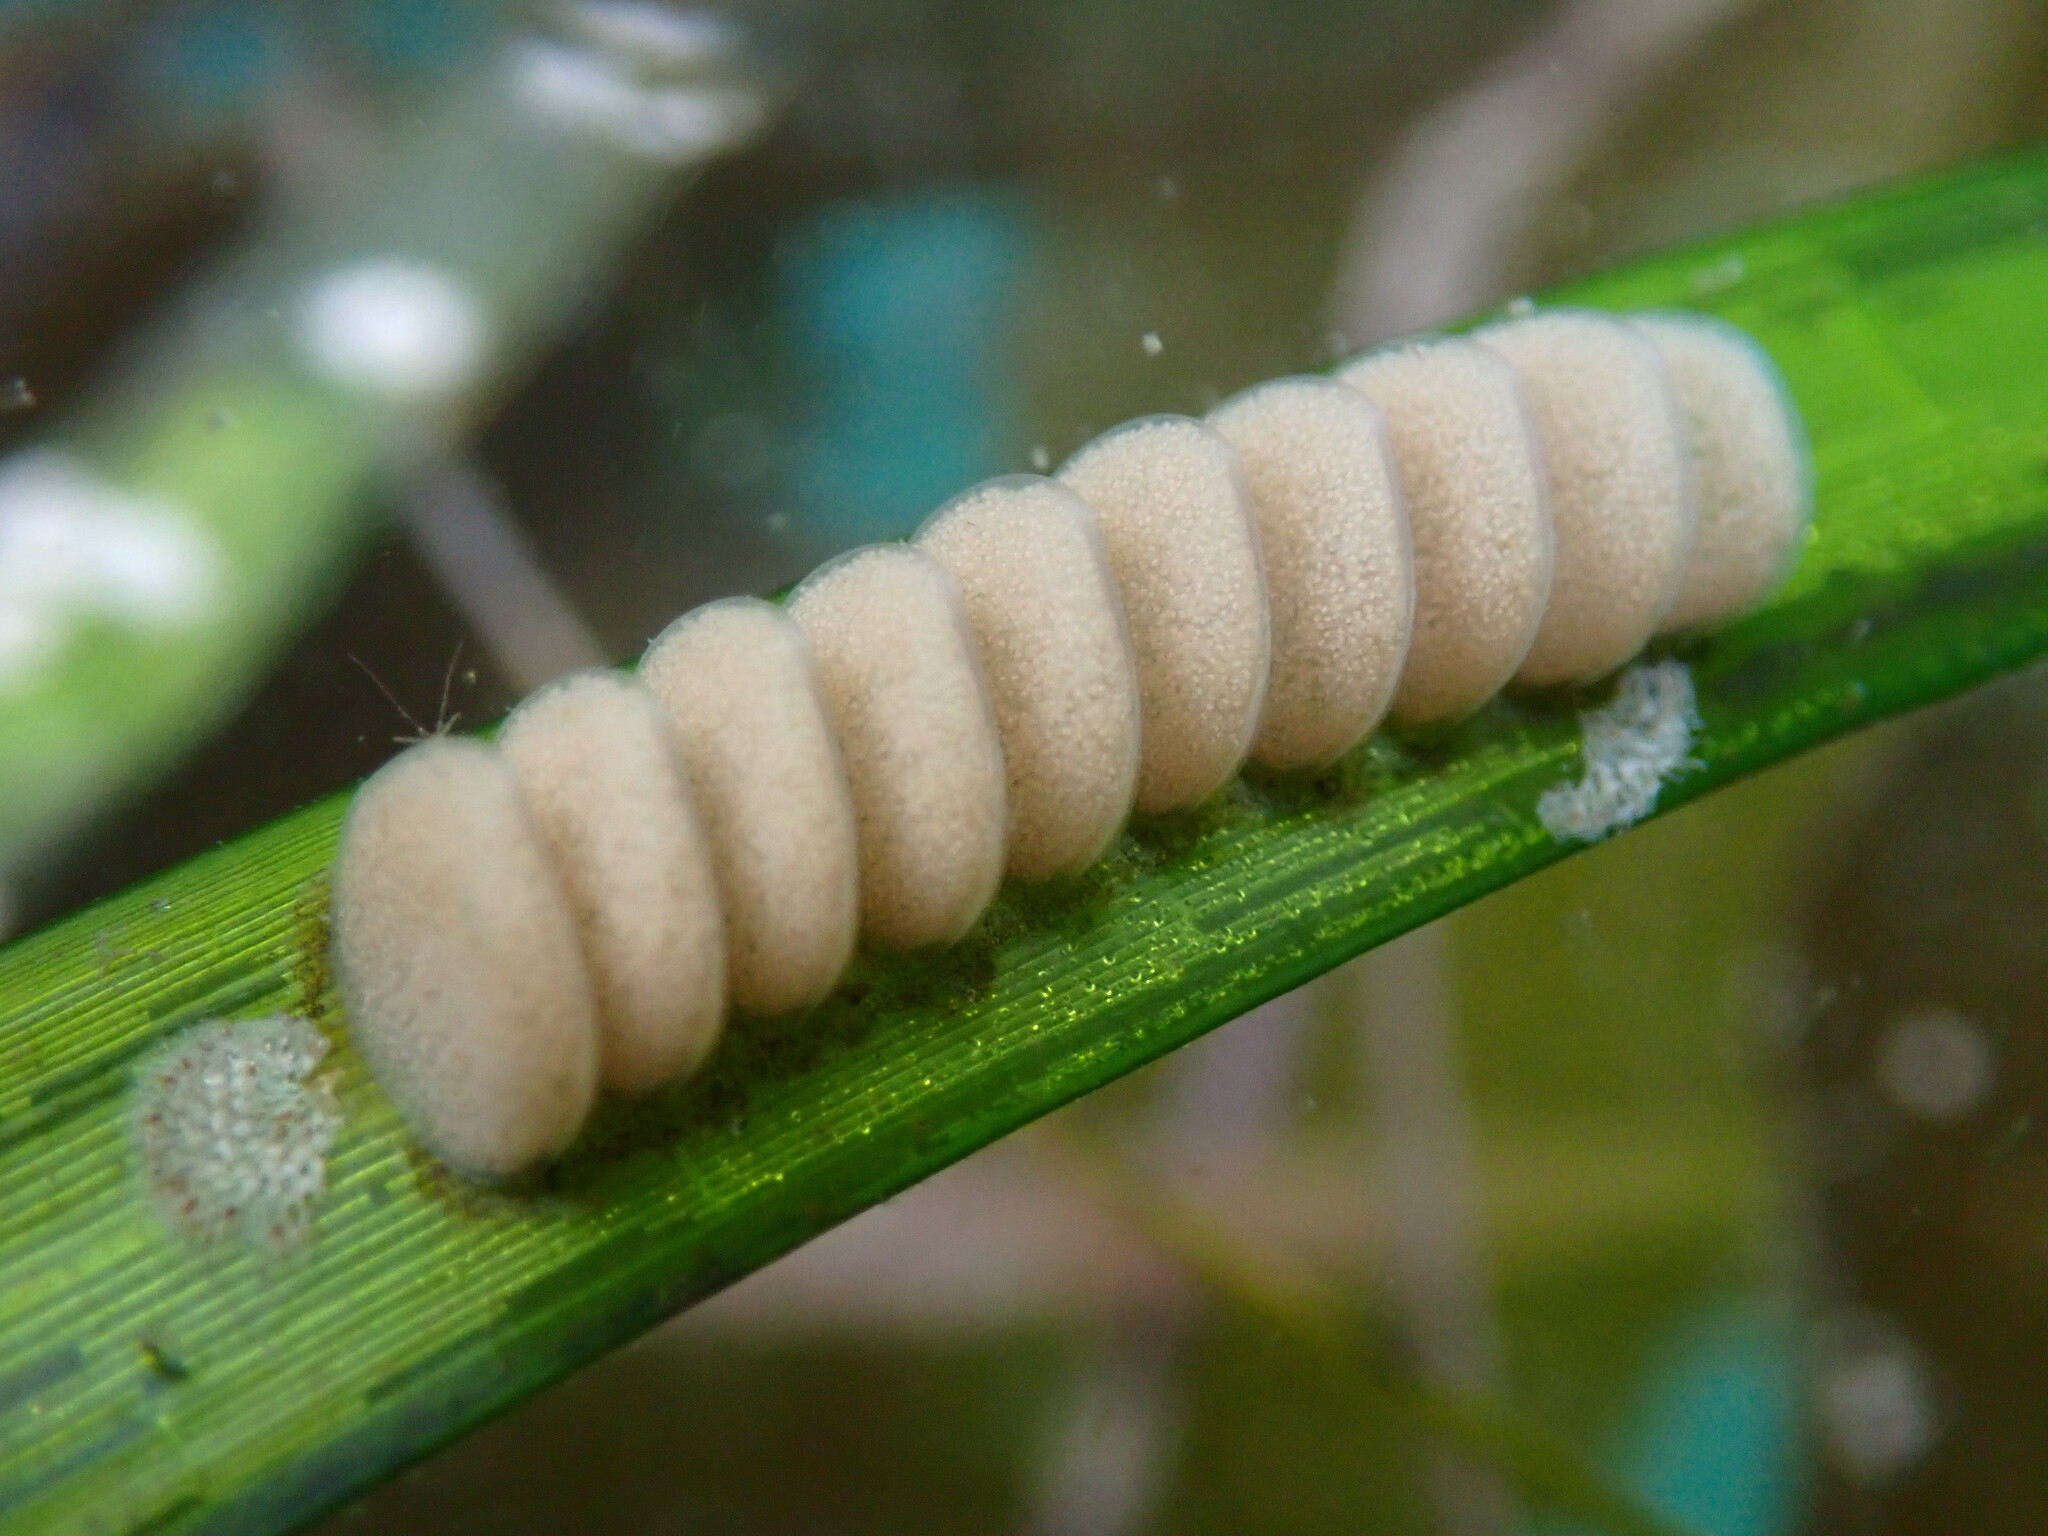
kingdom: Animalia
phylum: Mollusca
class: Gastropoda
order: Neogastropoda
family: Conidae
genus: Californiconus
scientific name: Californiconus californicus
